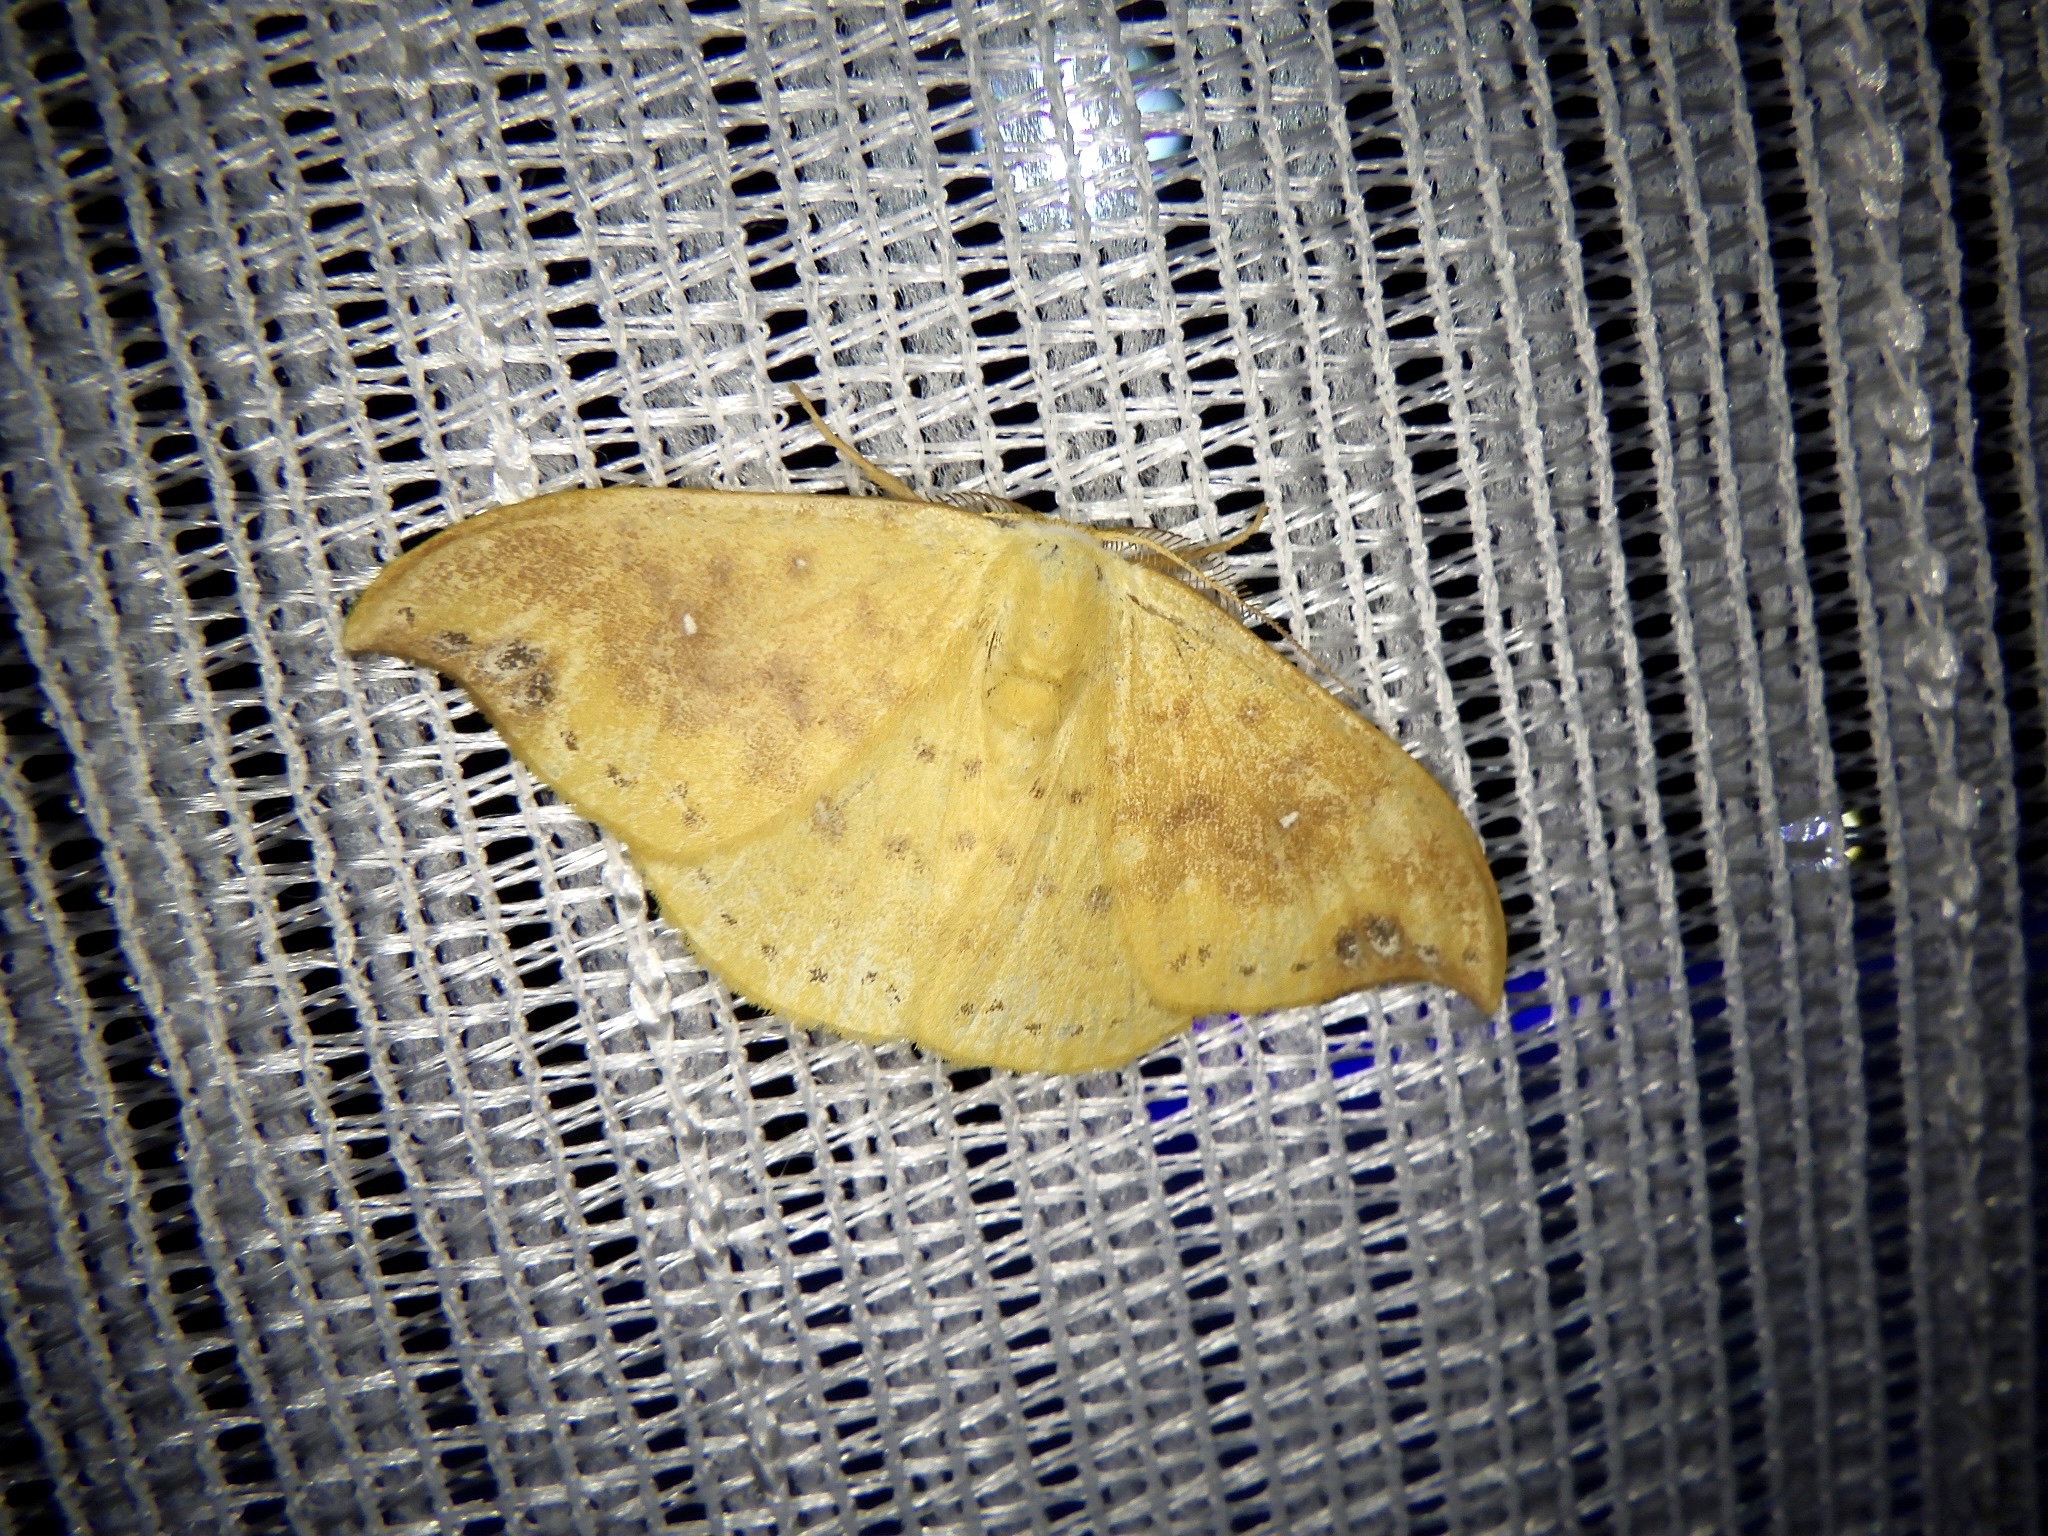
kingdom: Animalia
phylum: Arthropoda
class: Insecta
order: Lepidoptera
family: Drepanidae
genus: Tridrepana
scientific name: Tridrepana crocea
